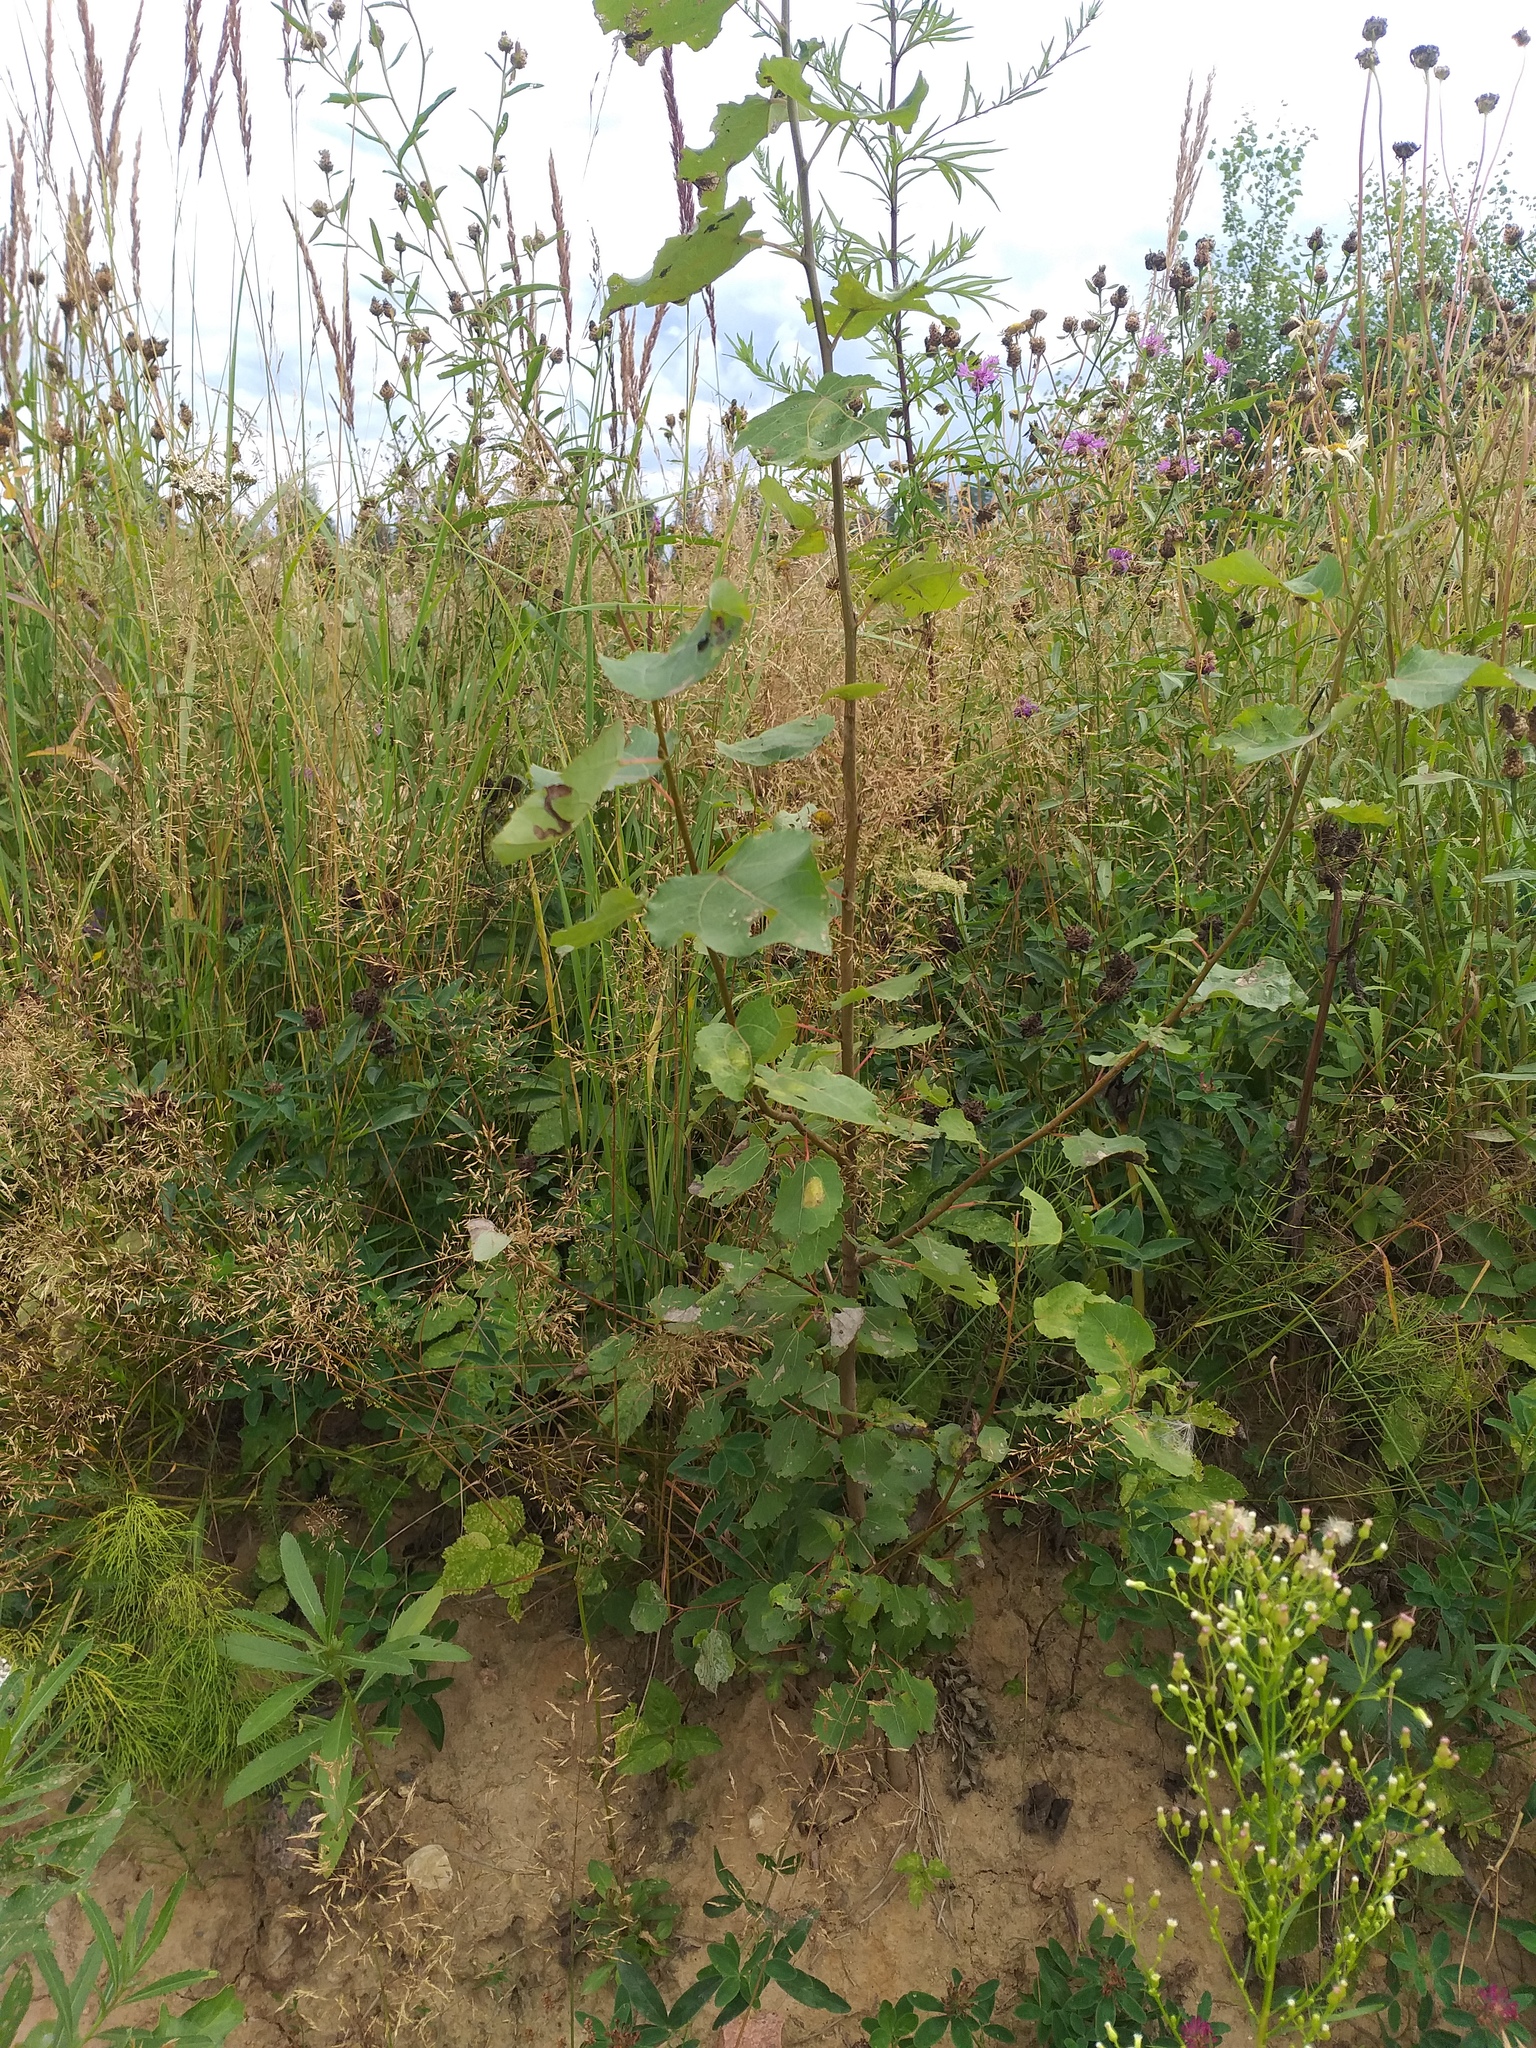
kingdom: Plantae
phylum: Tracheophyta
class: Magnoliopsida
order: Malpighiales
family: Salicaceae
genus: Populus
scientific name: Populus tremula
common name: European aspen
